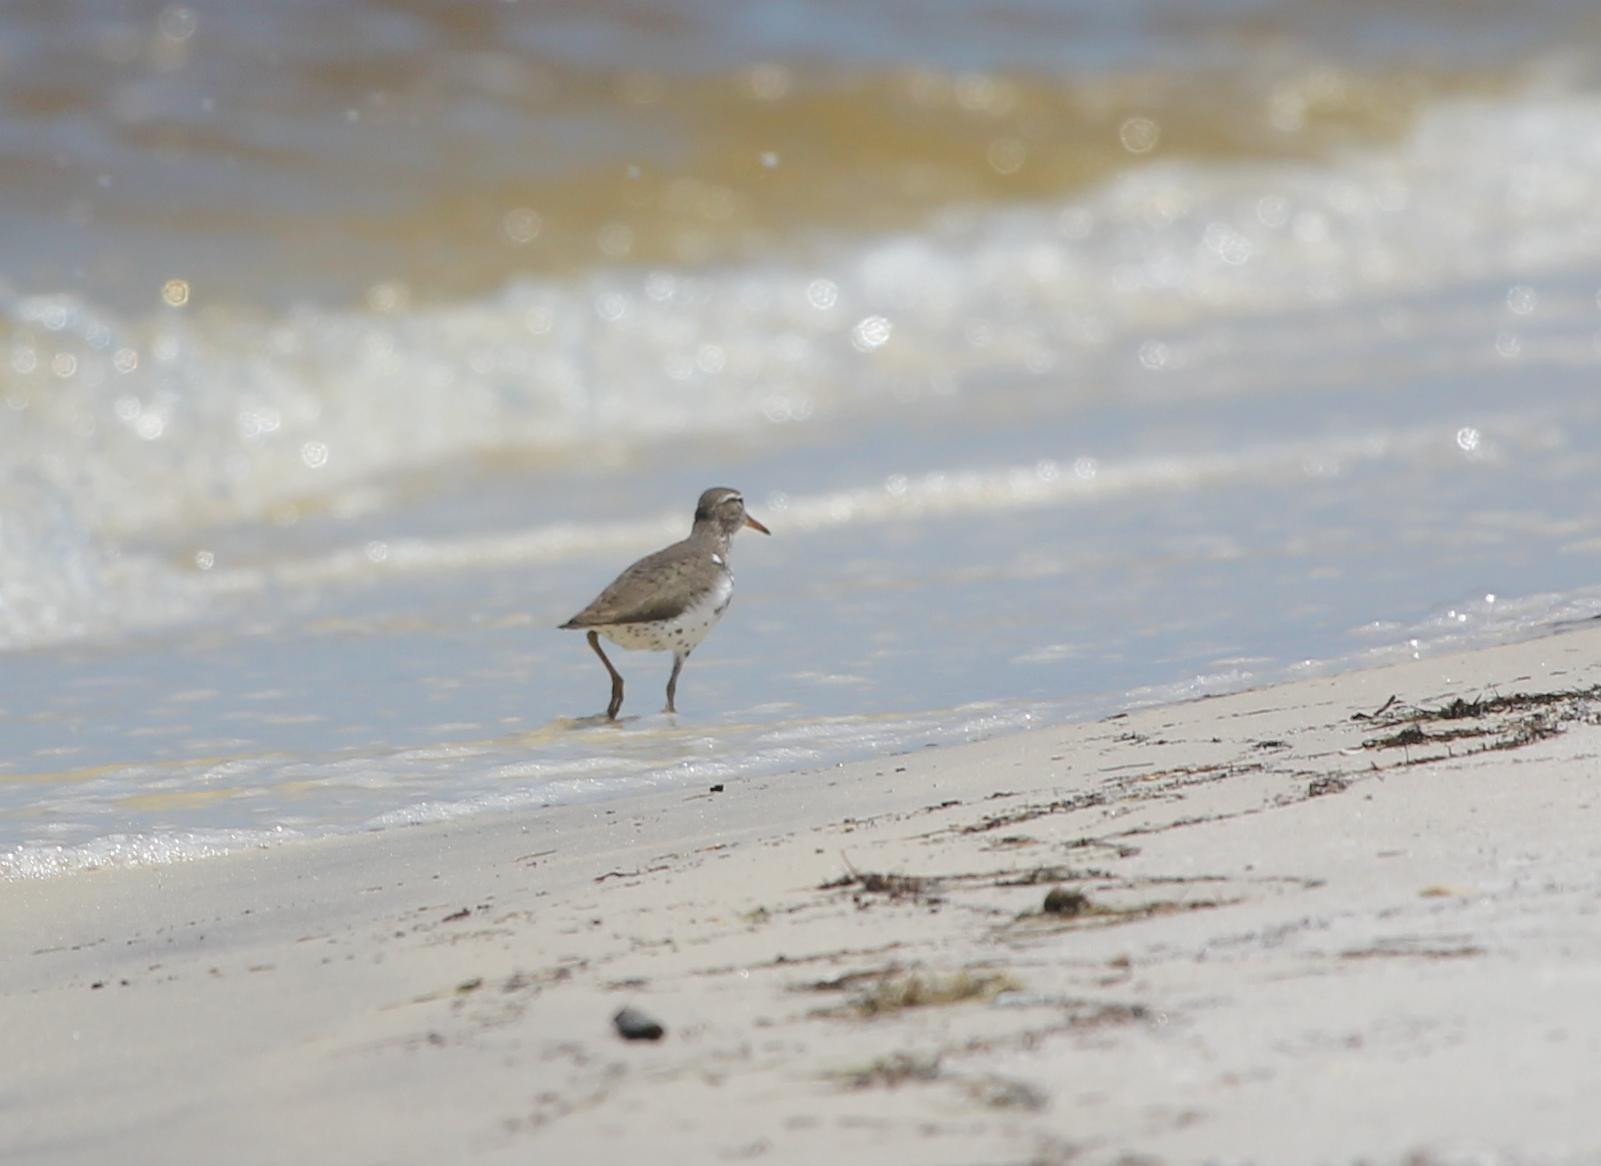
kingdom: Animalia
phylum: Chordata
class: Aves
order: Charadriiformes
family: Scolopacidae
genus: Actitis
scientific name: Actitis macularius
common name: Spotted sandpiper
